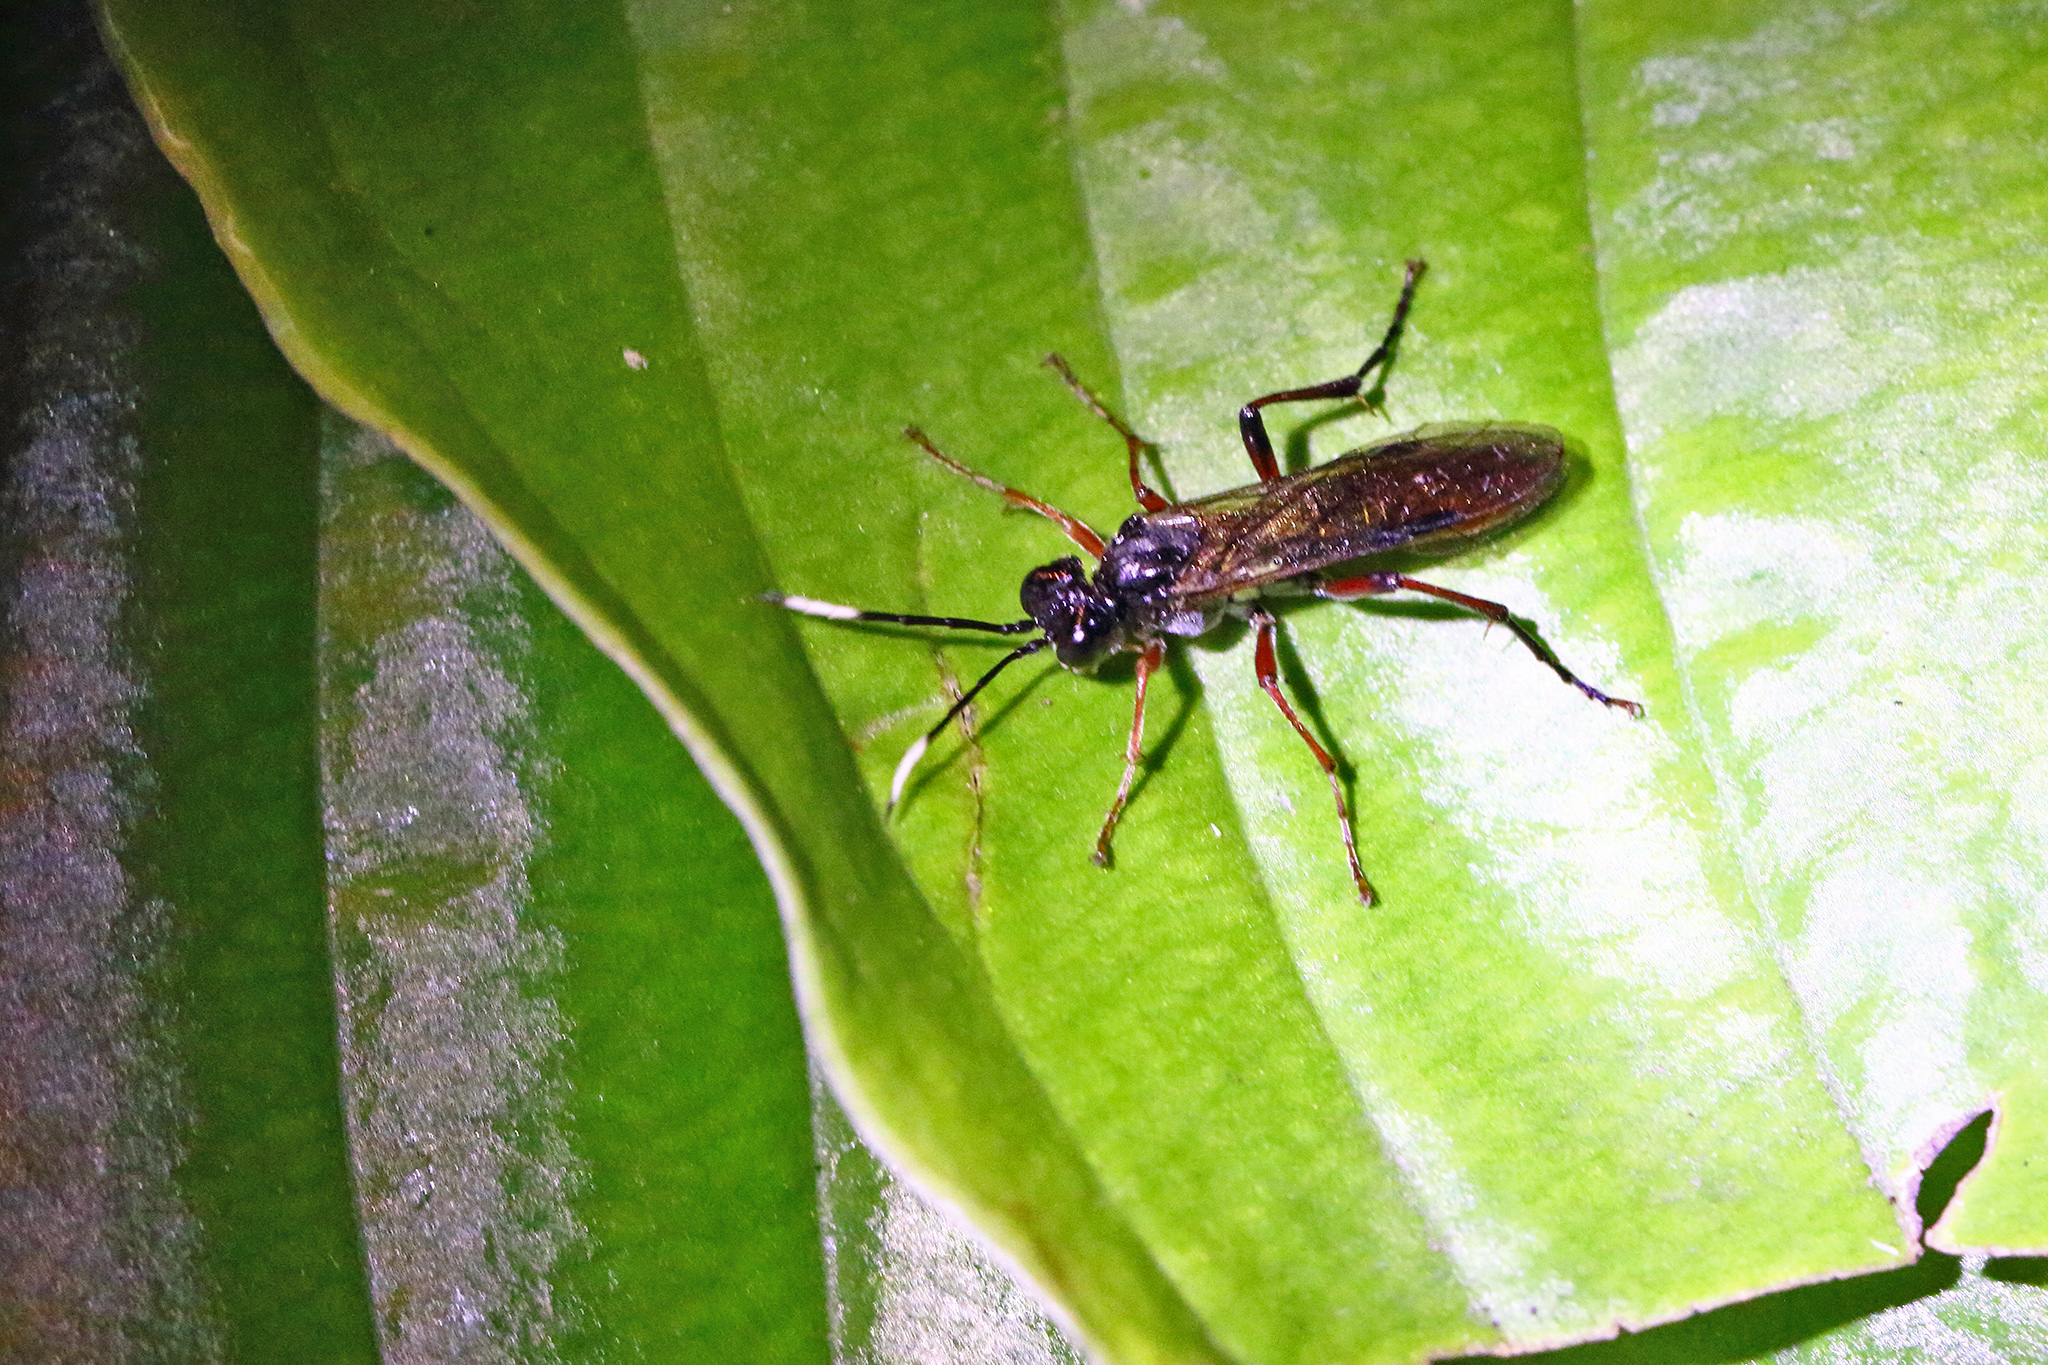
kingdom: Animalia
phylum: Arthropoda
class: Insecta
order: Hymenoptera
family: Tenthredinidae
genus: Tenthredo
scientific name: Tenthredo colon
